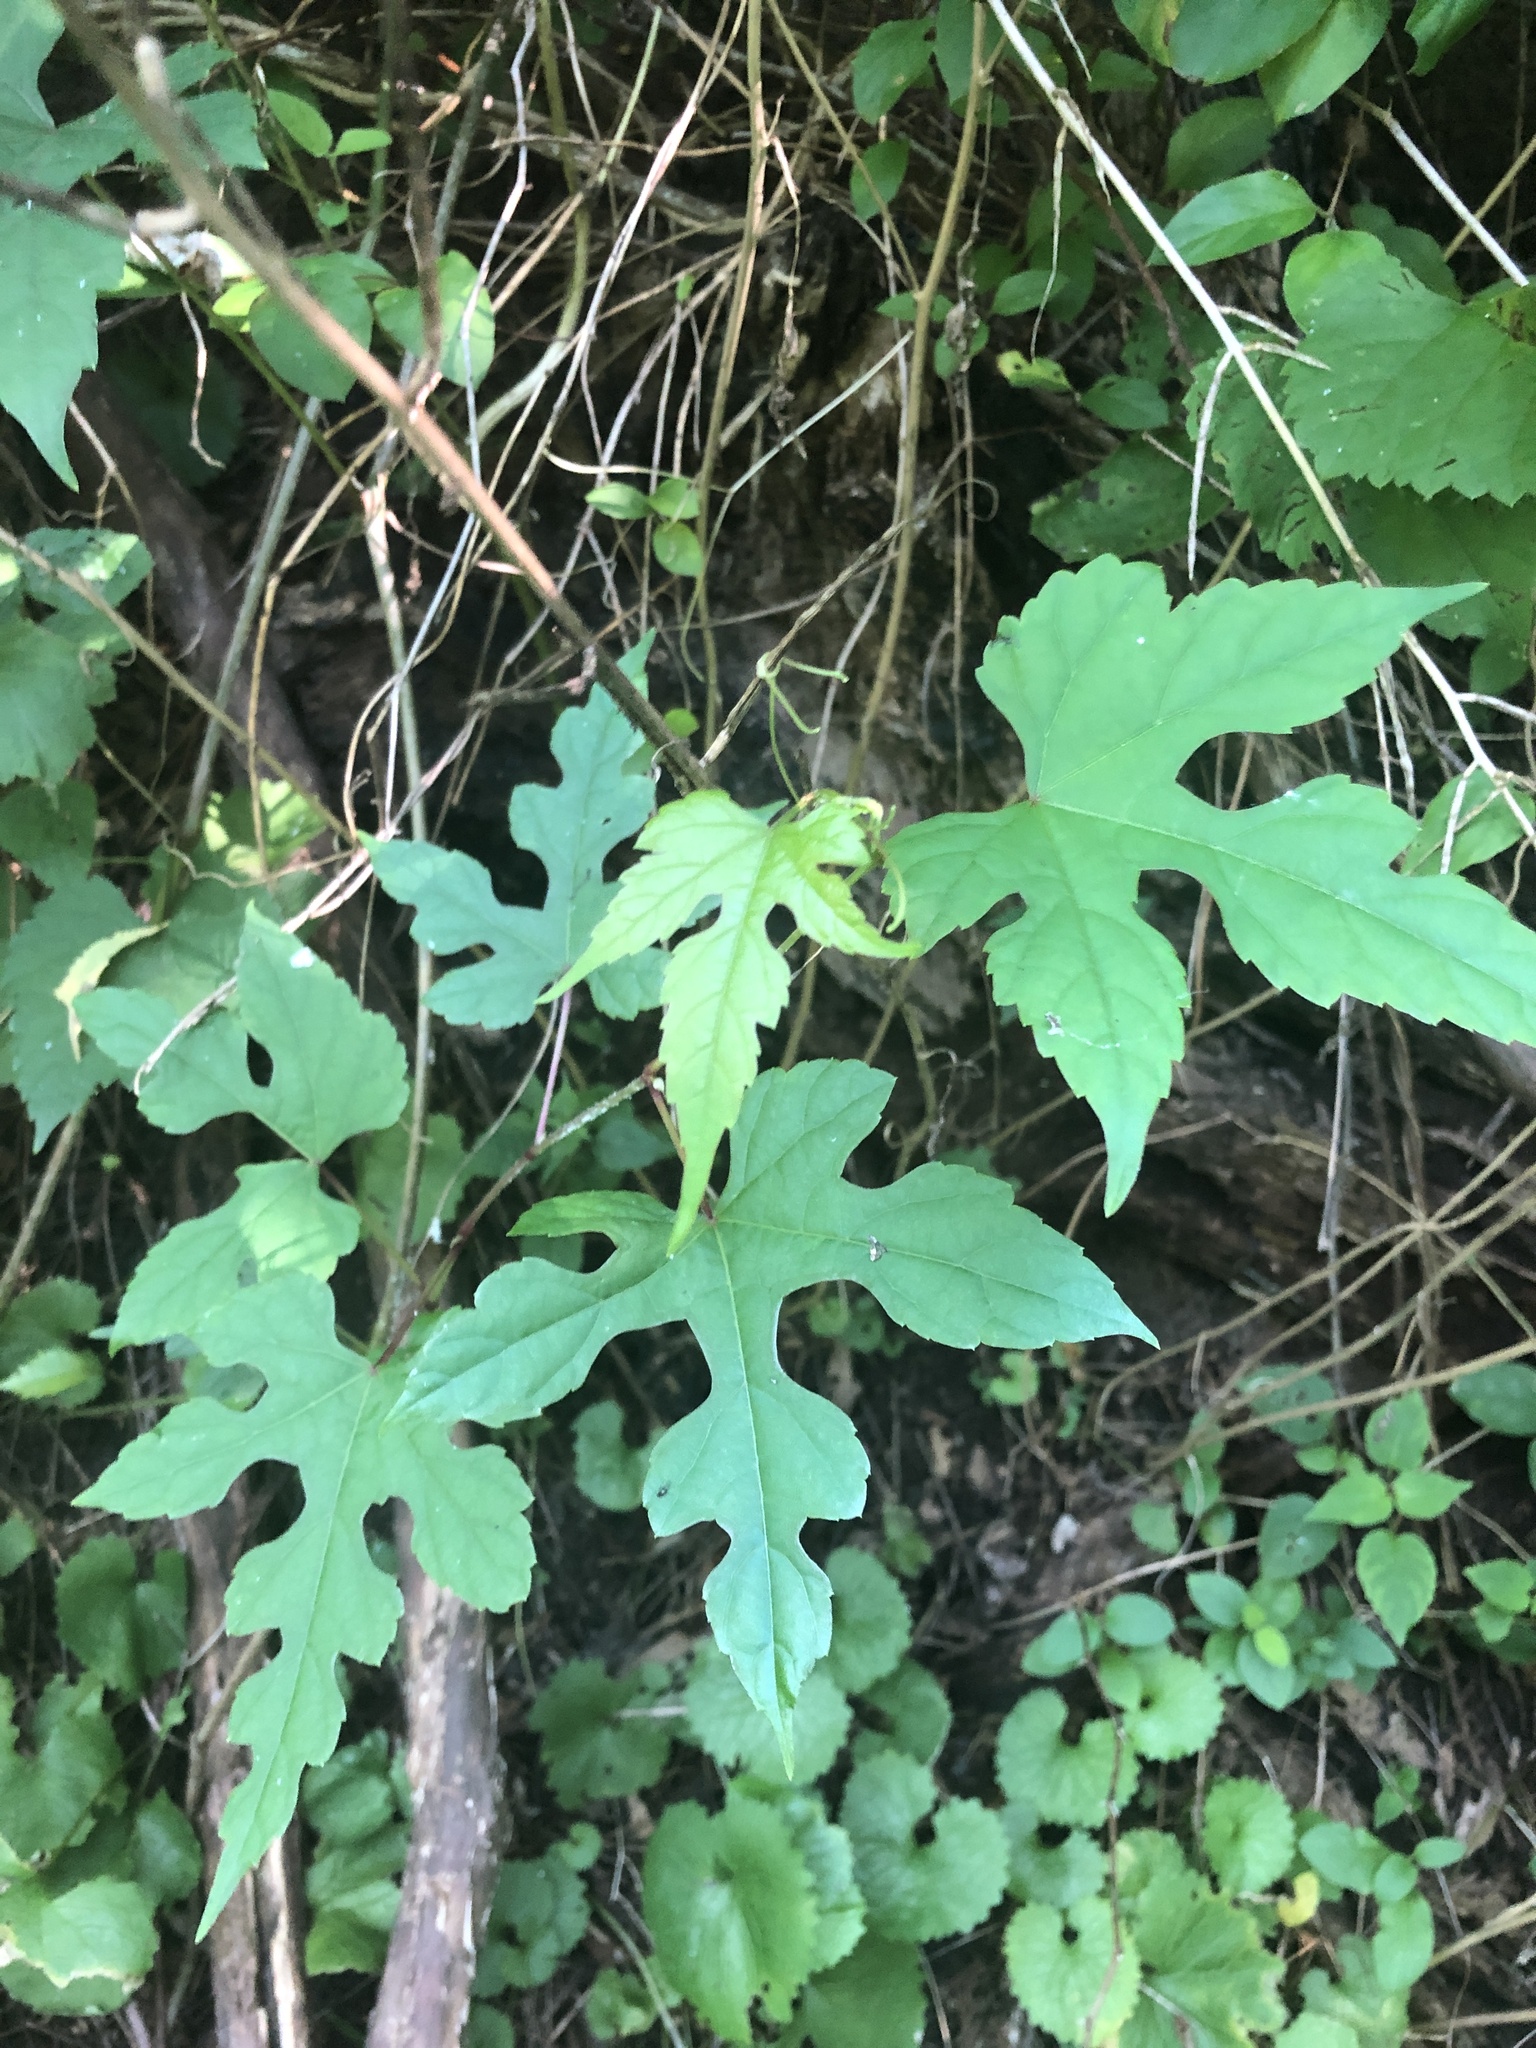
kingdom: Plantae
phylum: Tracheophyta
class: Magnoliopsida
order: Vitales
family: Vitaceae
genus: Ampelopsis
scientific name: Ampelopsis glandulosa
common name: Amur peppervine
